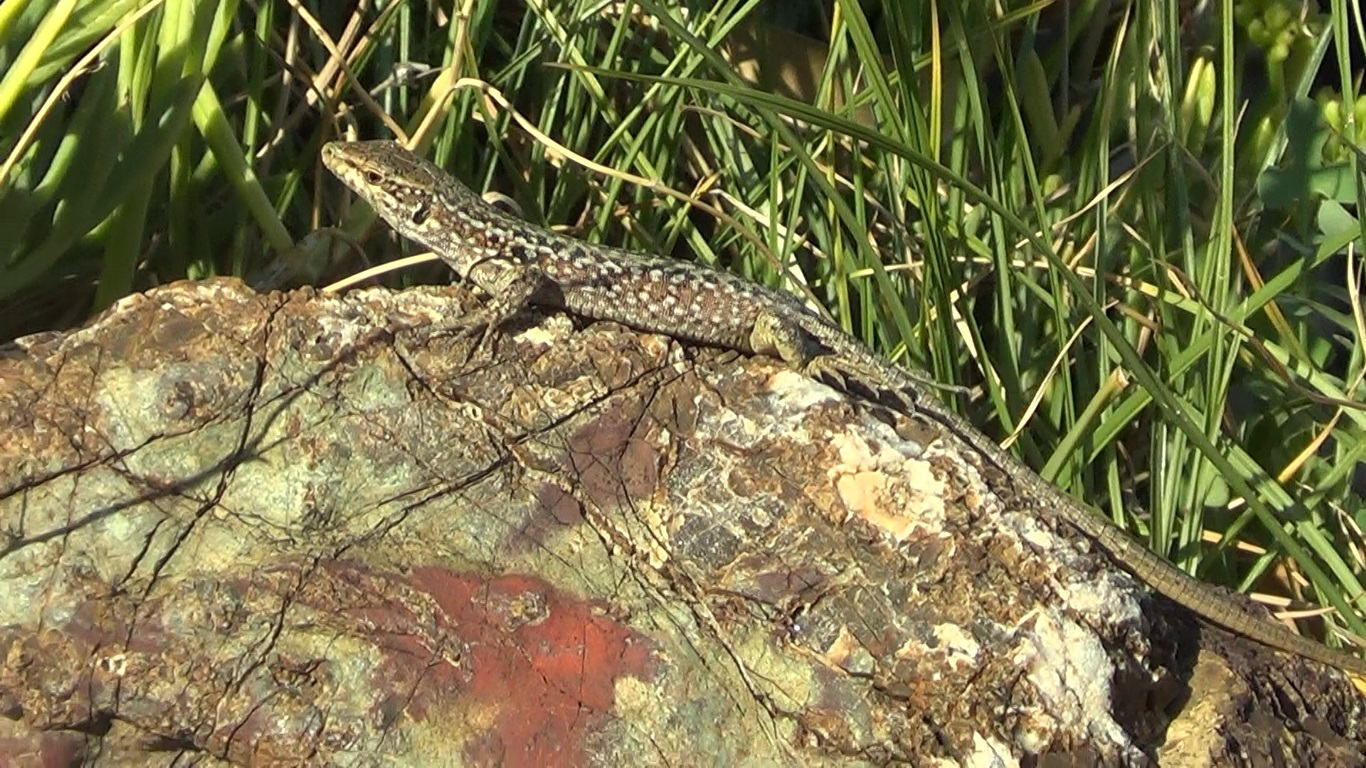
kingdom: Animalia
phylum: Chordata
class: Squamata
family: Lacertidae
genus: Podarcis
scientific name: Podarcis siculus
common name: Italian wall lizard
